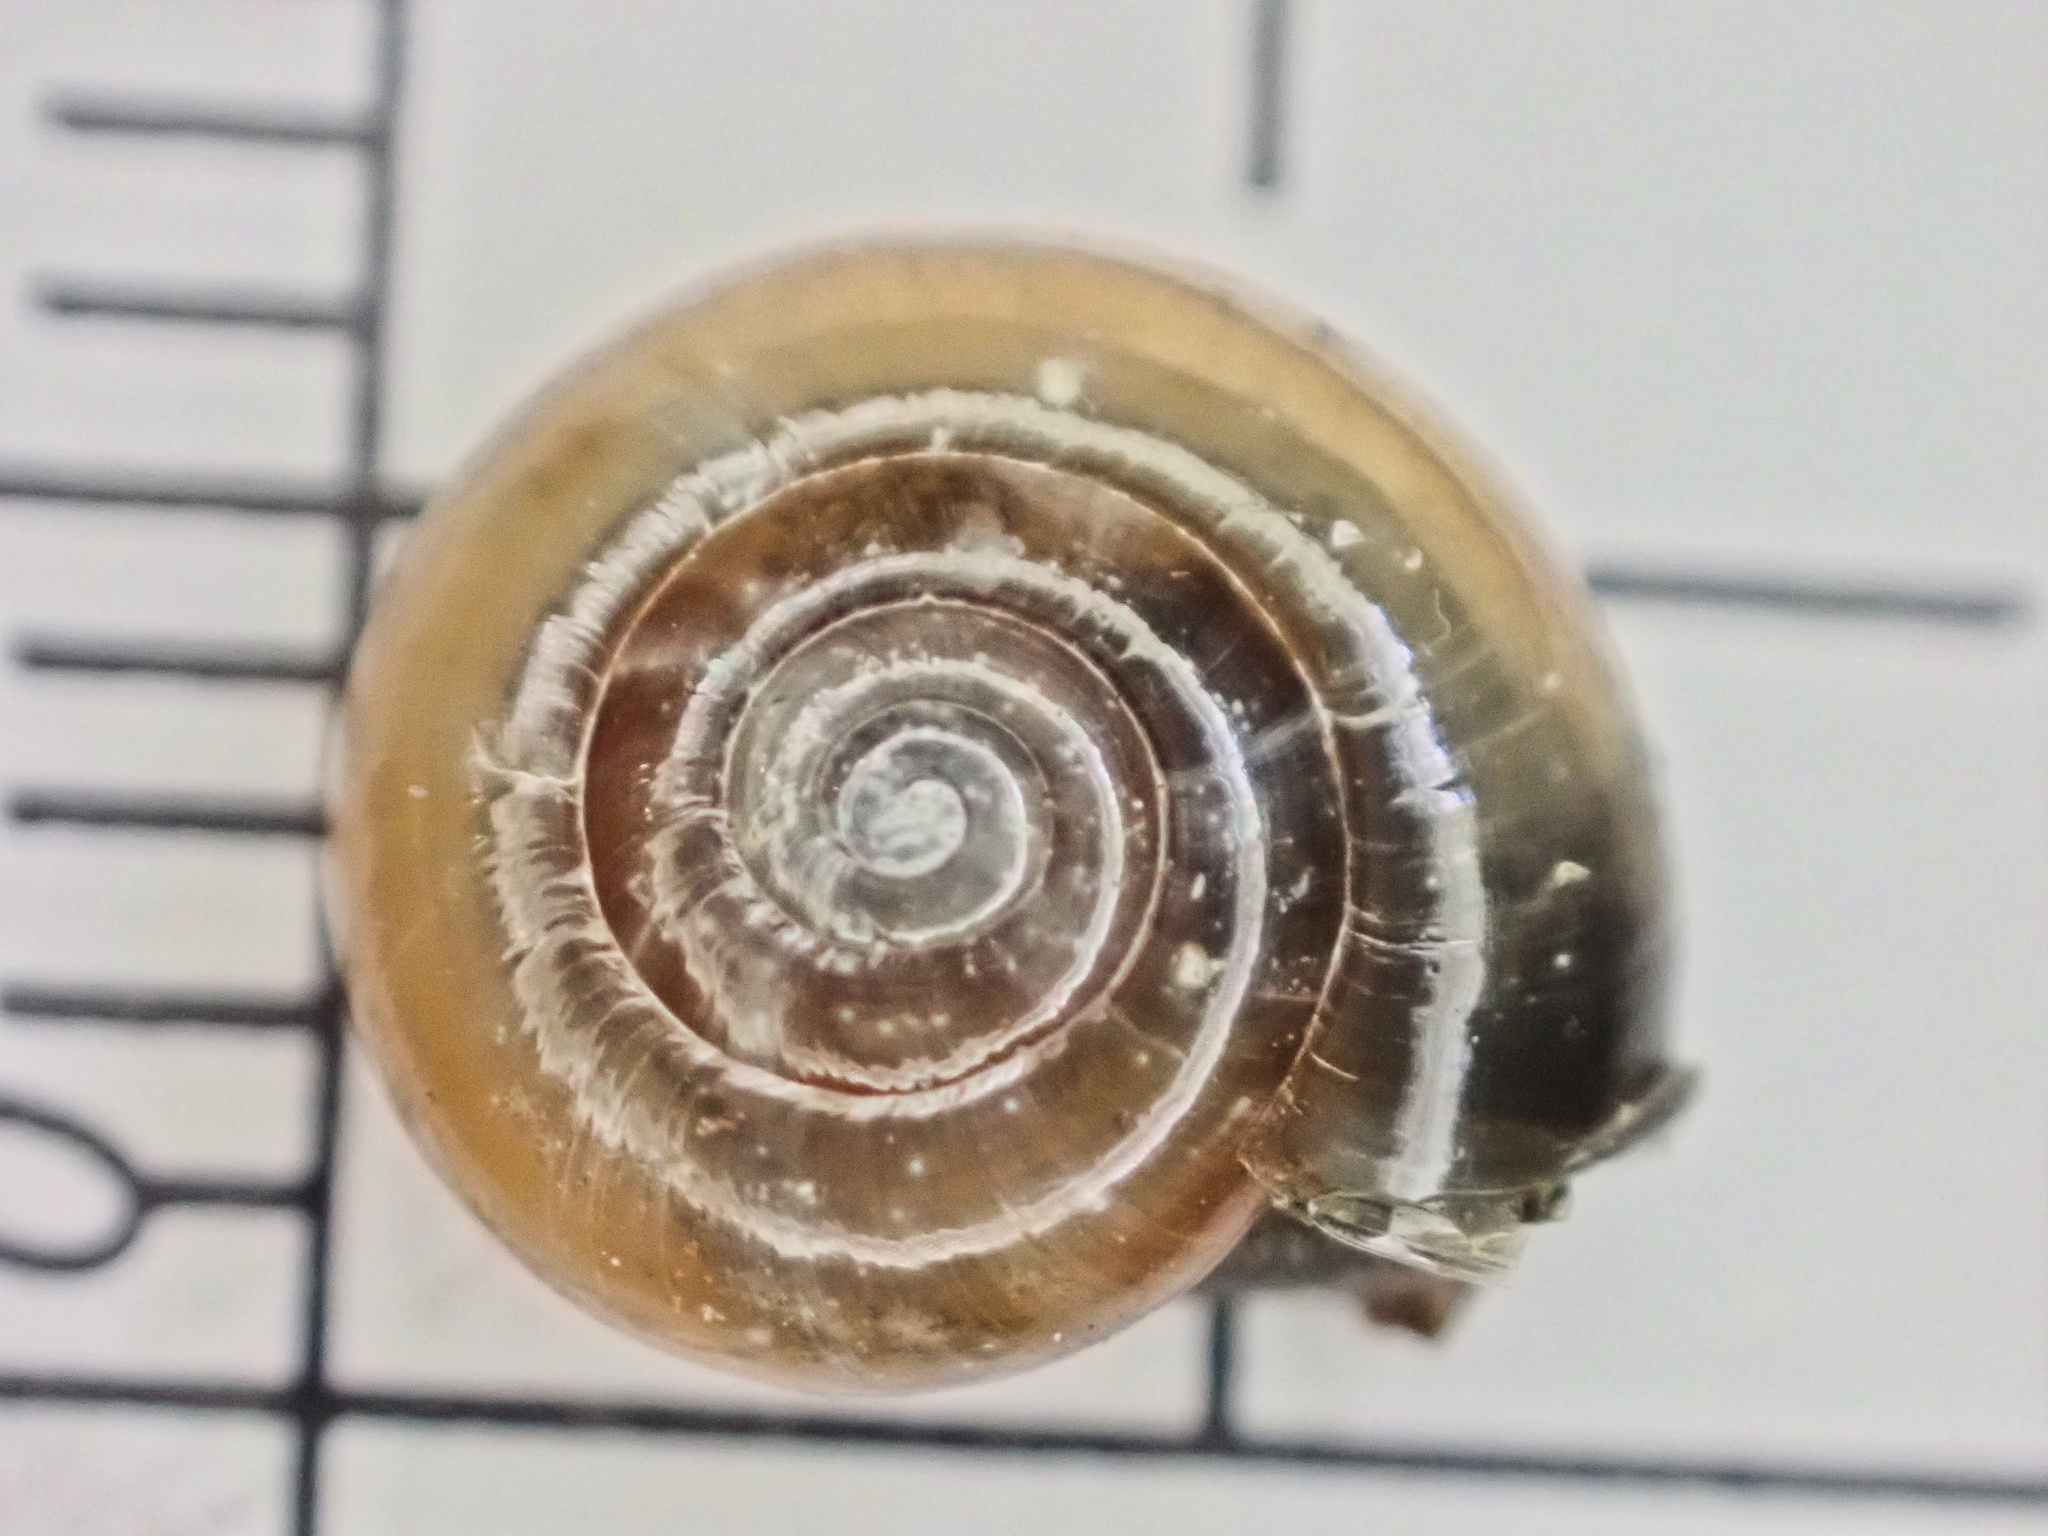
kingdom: Animalia
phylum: Mollusca
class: Gastropoda
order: Stylommatophora
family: Oxychilidae
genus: Oxychilus
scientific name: Oxychilus draparnaudi
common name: Draparnaud's glass snail
